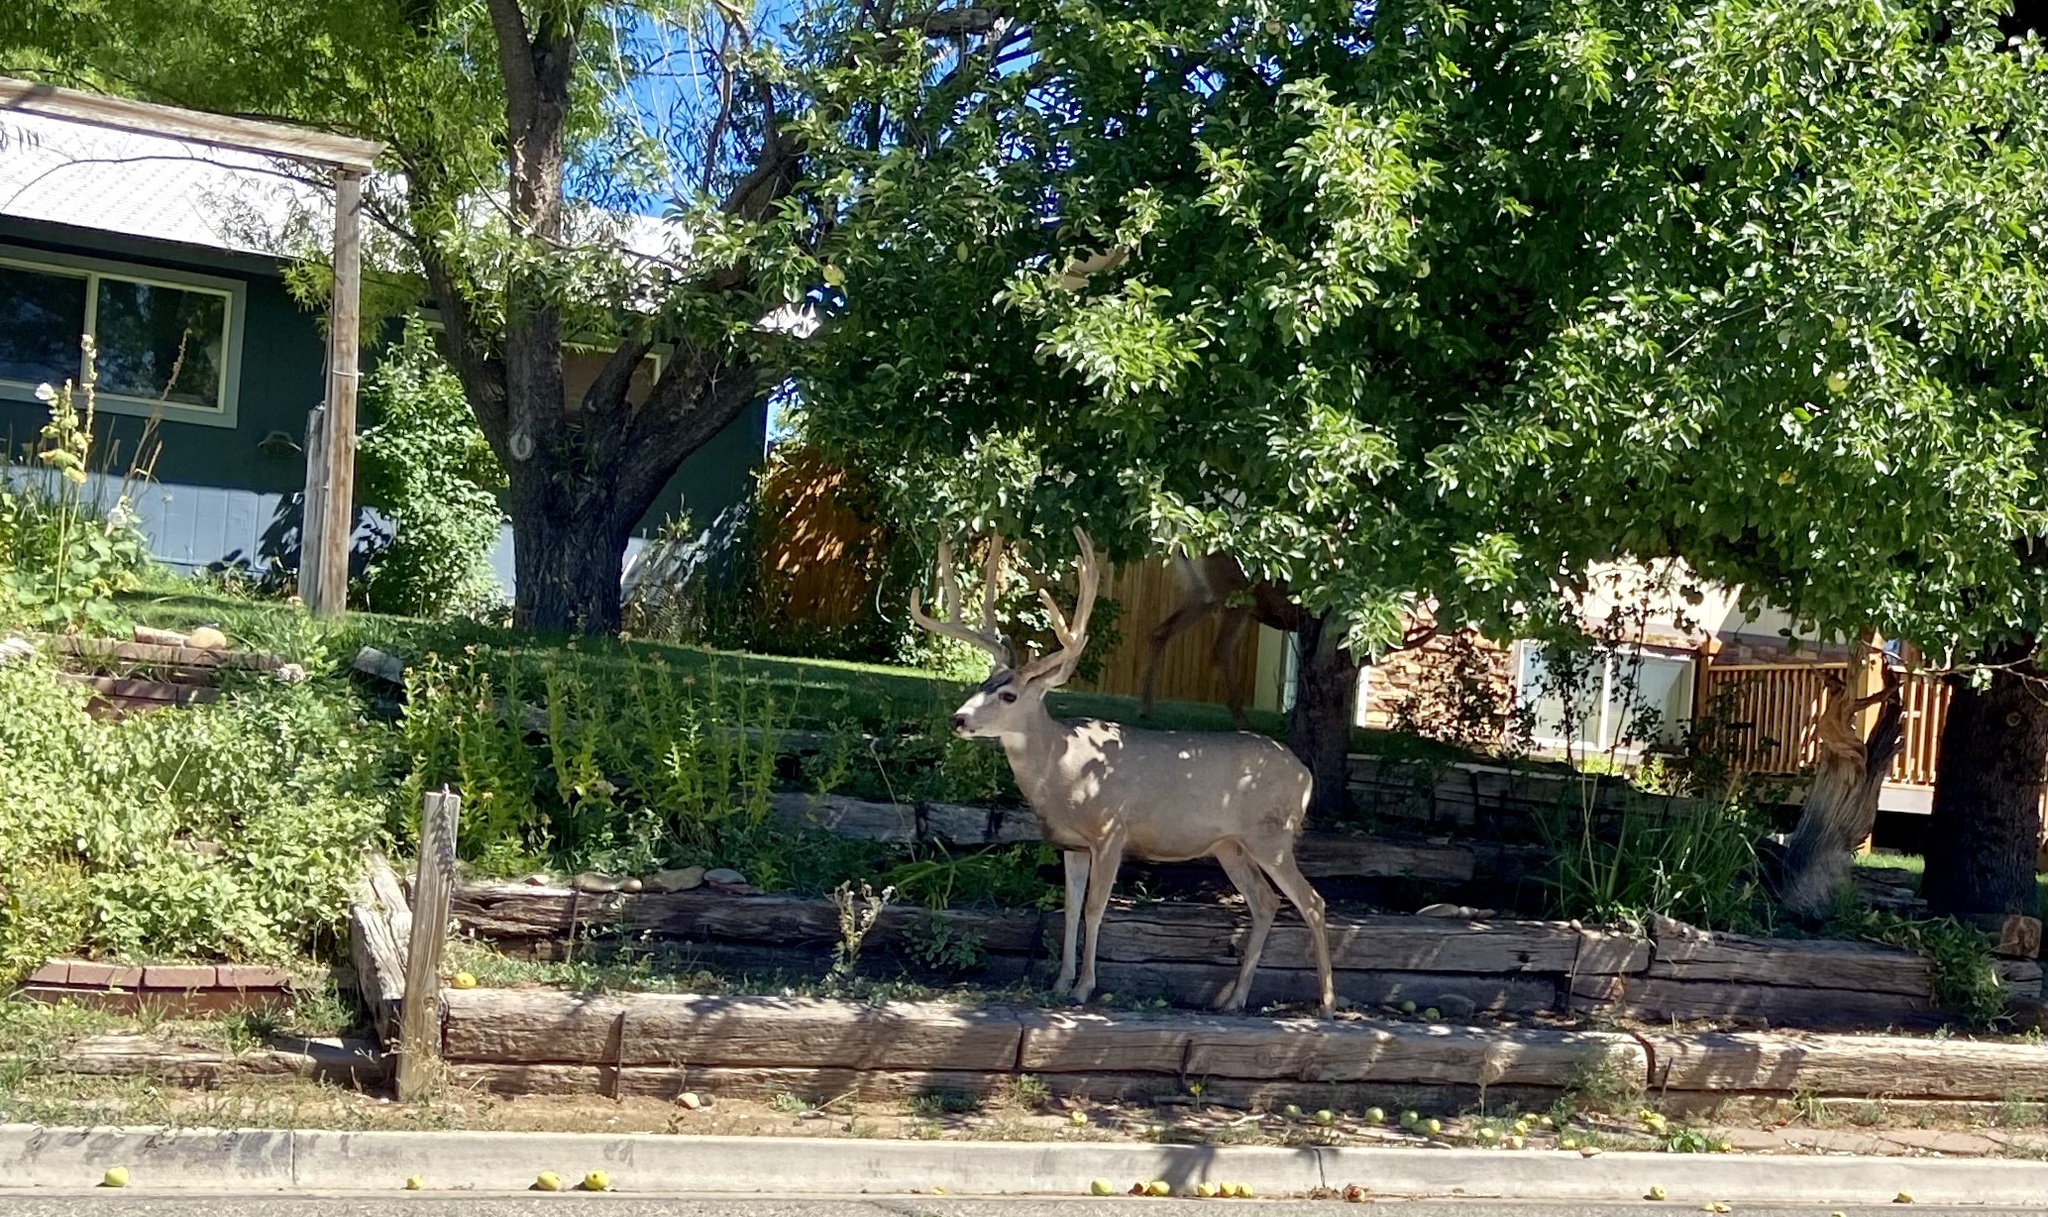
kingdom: Animalia
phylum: Chordata
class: Mammalia
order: Artiodactyla
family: Cervidae
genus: Odocoileus
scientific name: Odocoileus hemionus
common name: Mule deer
